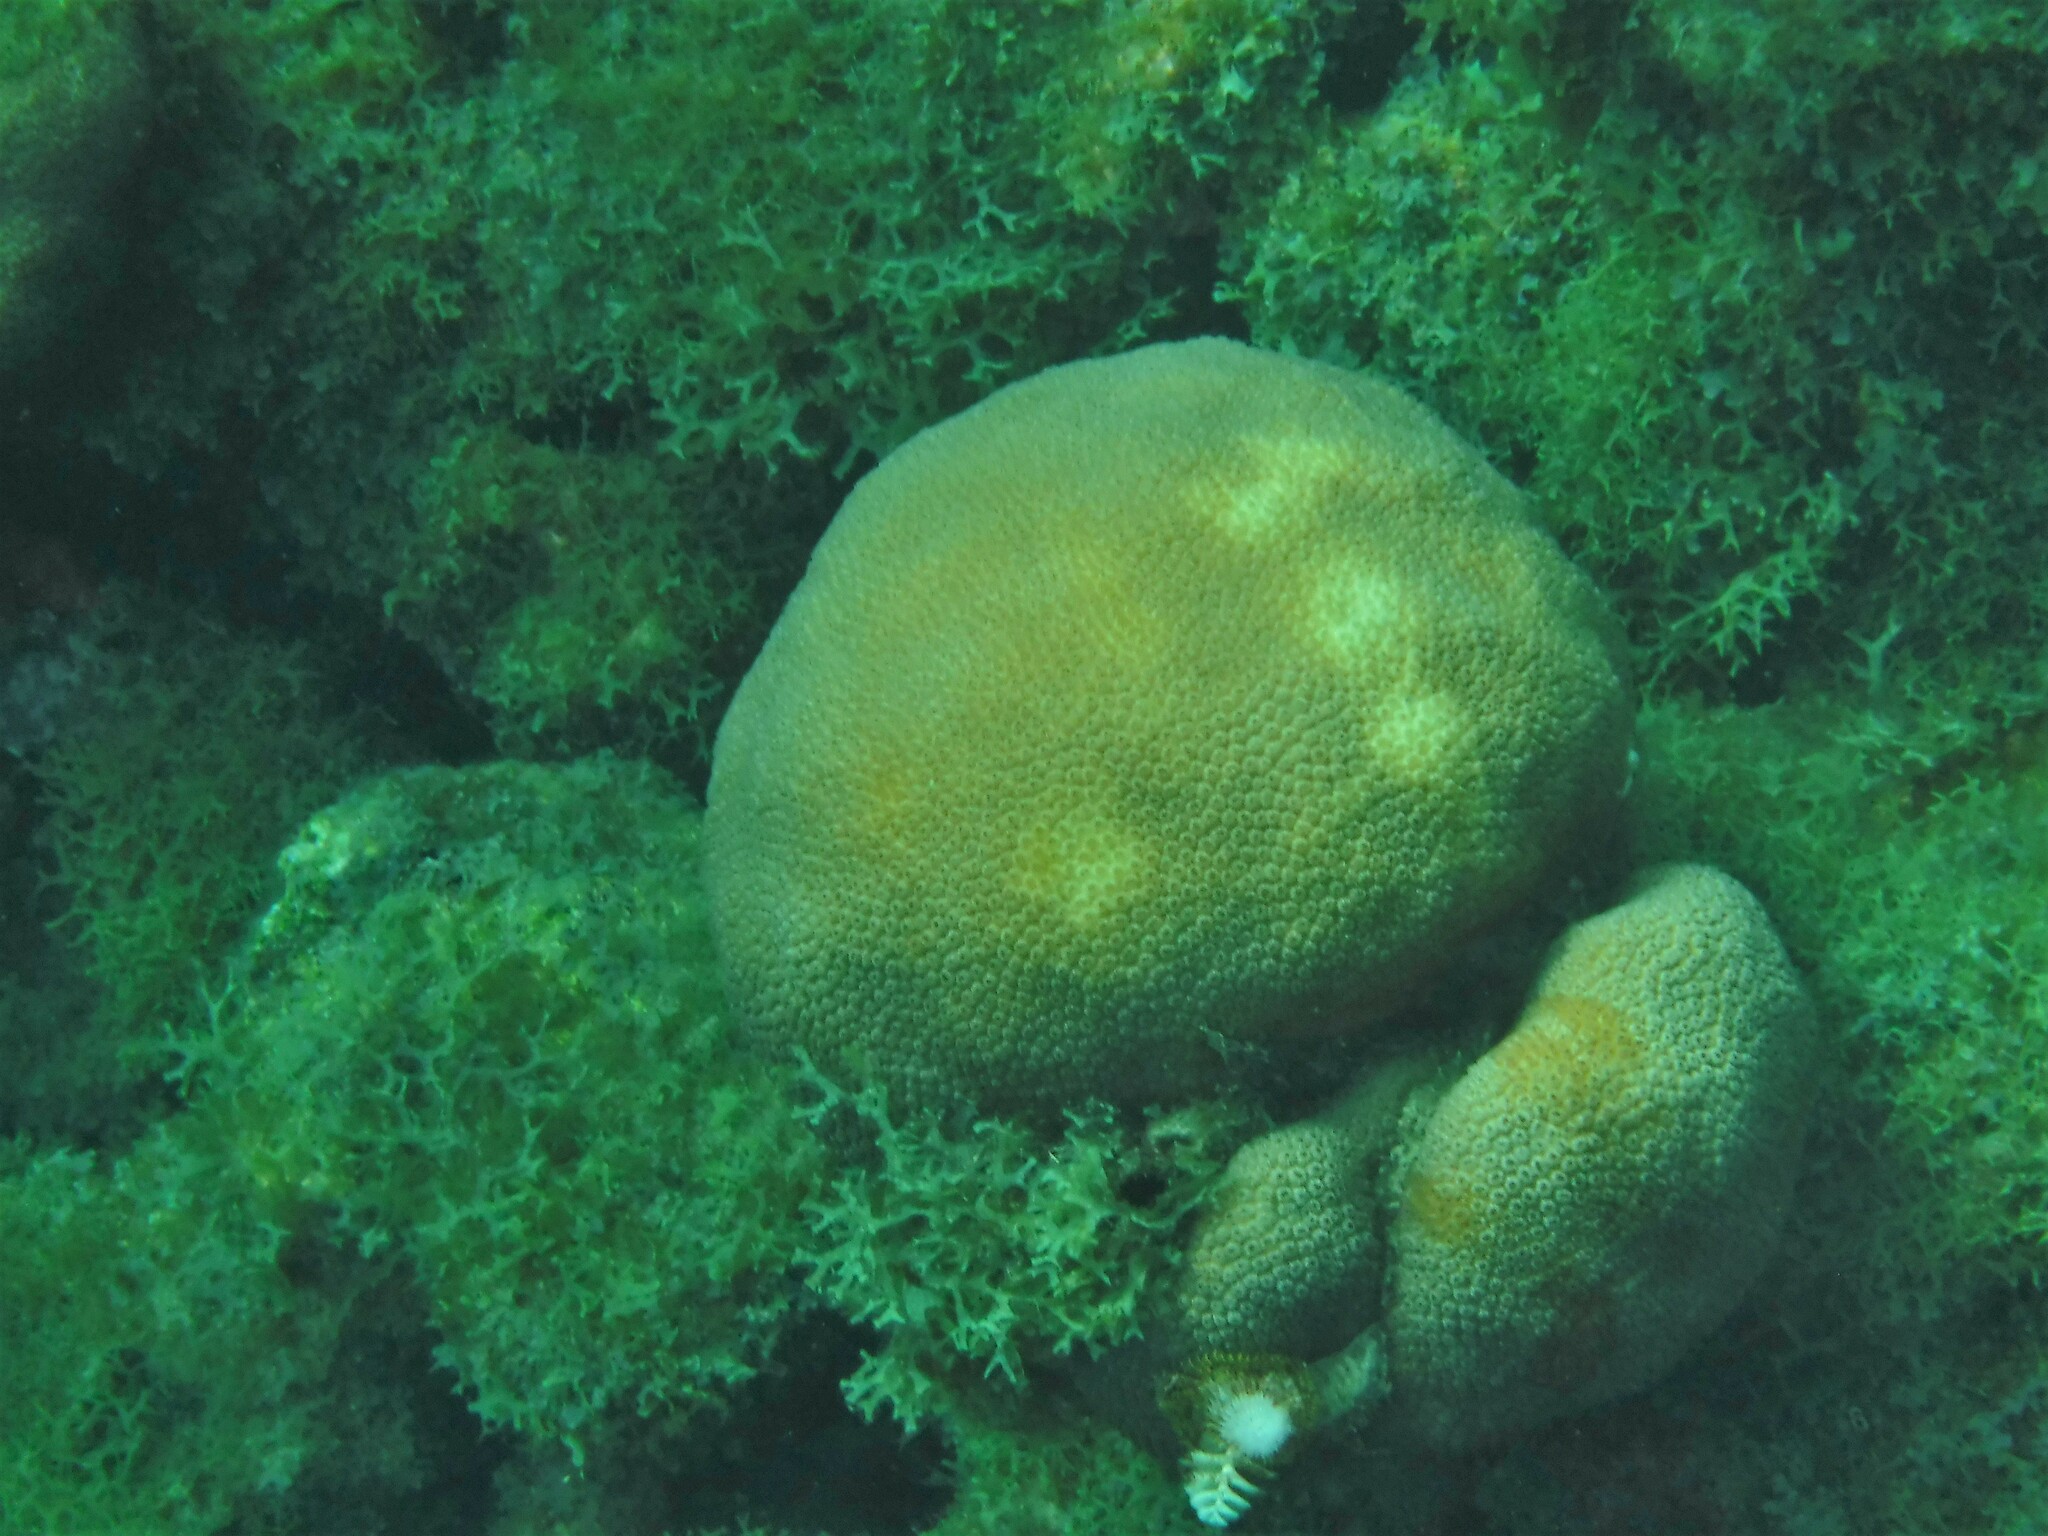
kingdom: Animalia
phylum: Cnidaria
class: Anthozoa
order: Scleractinia
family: Merulinidae
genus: Orbicella
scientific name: Orbicella annularis
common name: Boulder star coral
